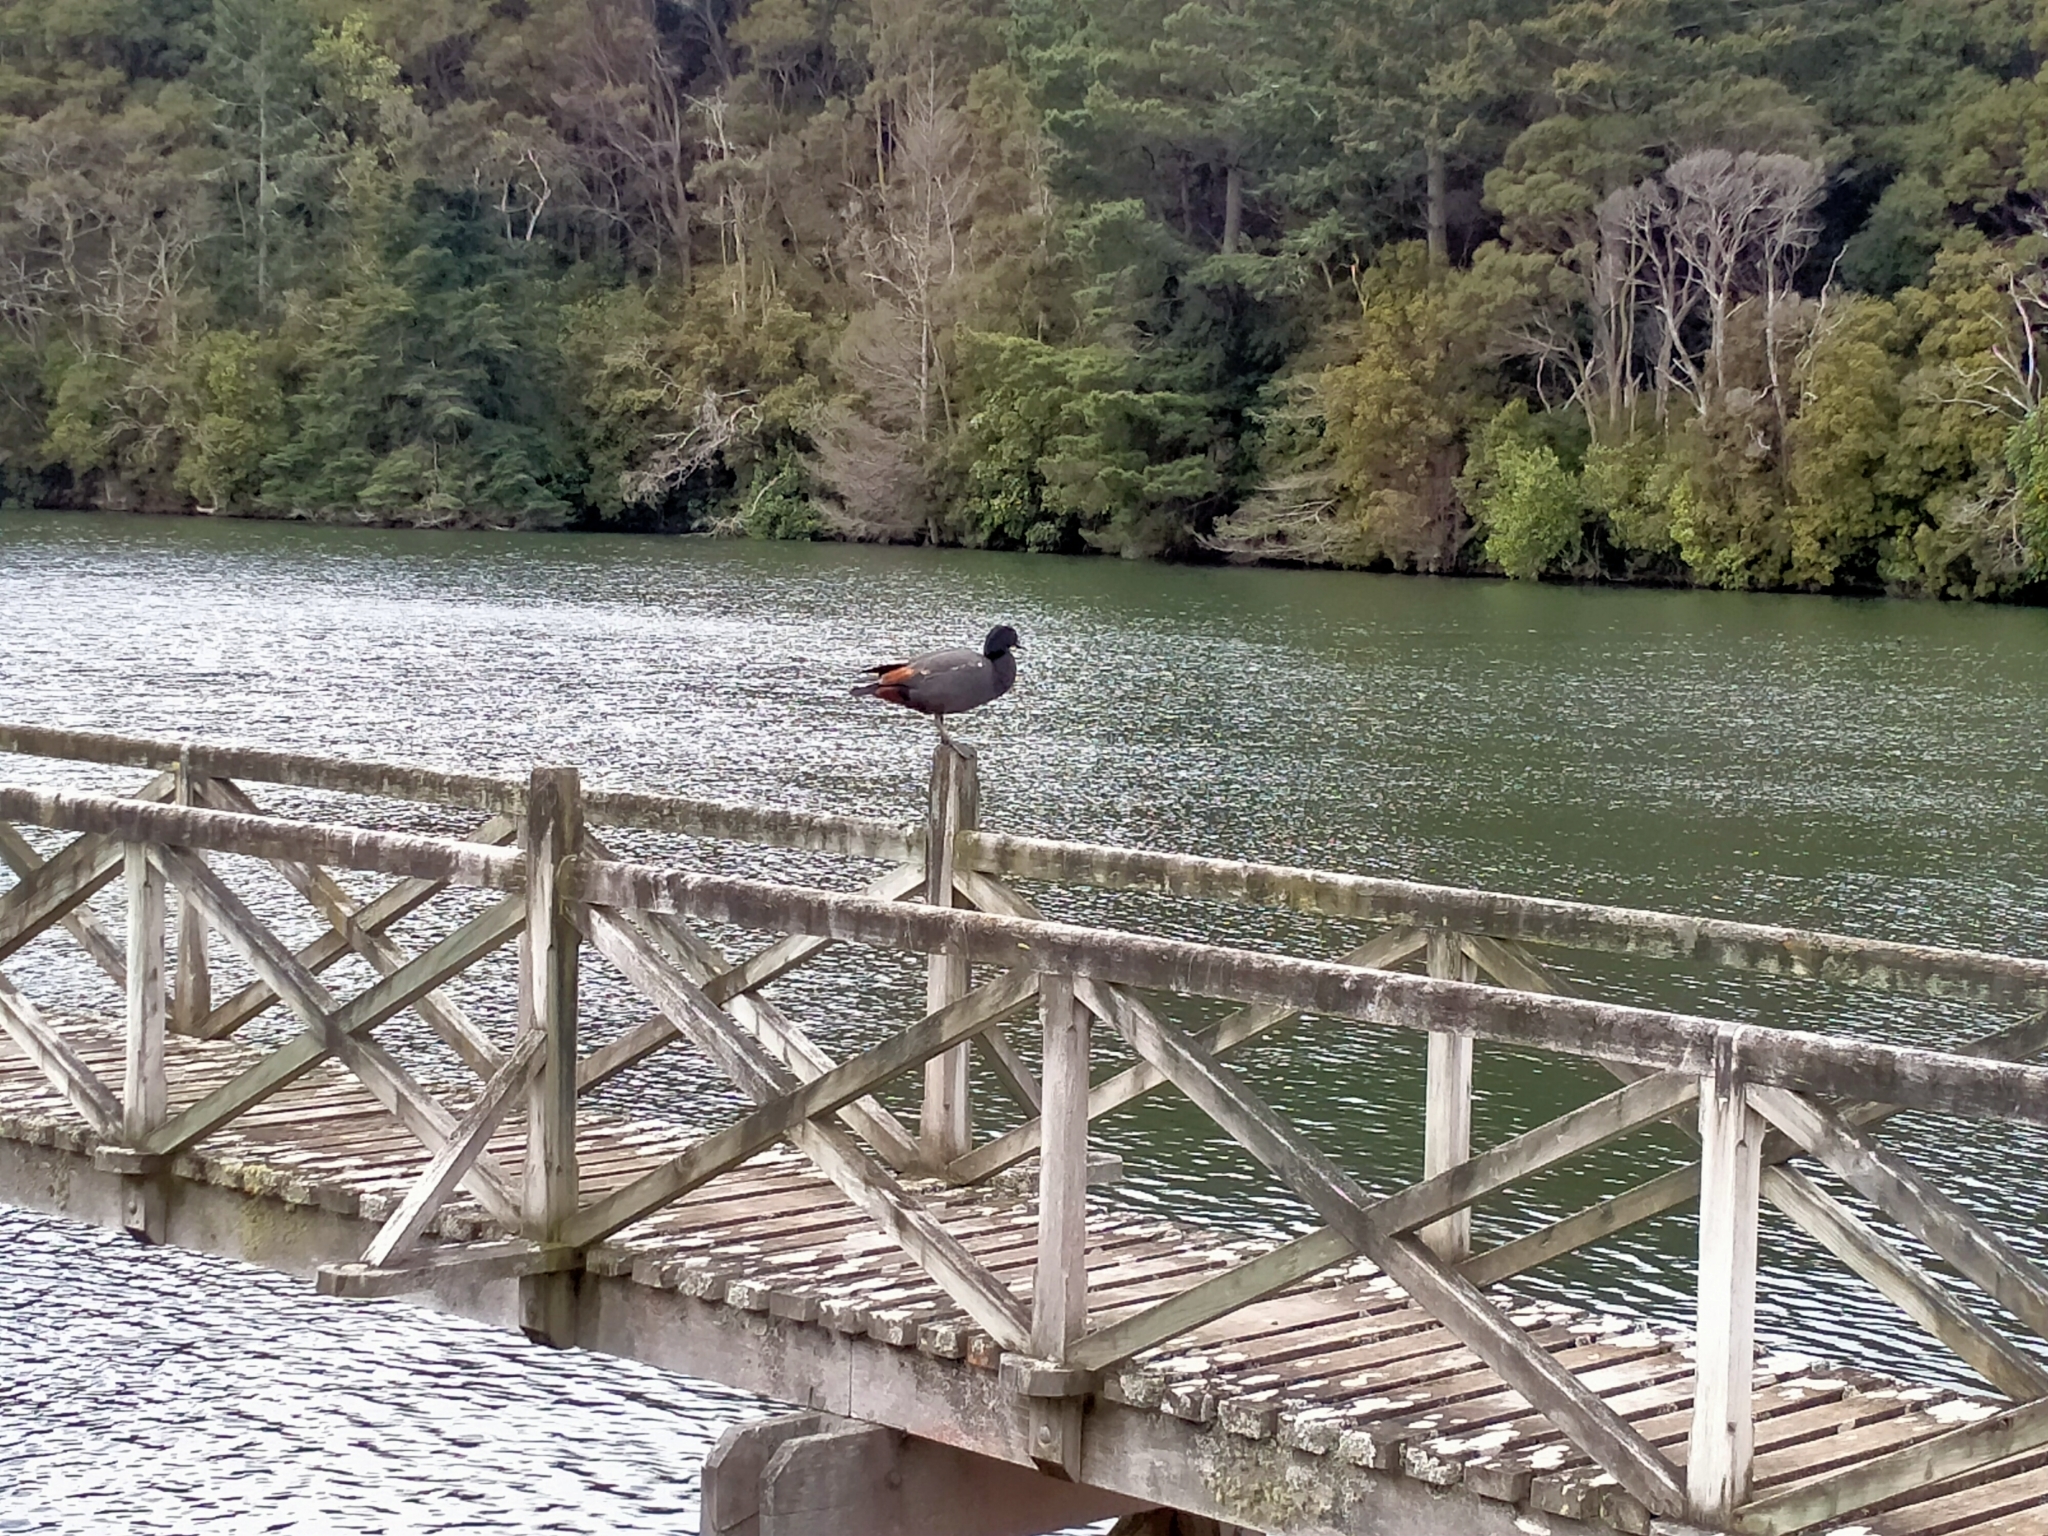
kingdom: Animalia
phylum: Chordata
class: Aves
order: Anseriformes
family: Anatidae
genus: Tadorna
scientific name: Tadorna variegata
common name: Paradise shelduck
